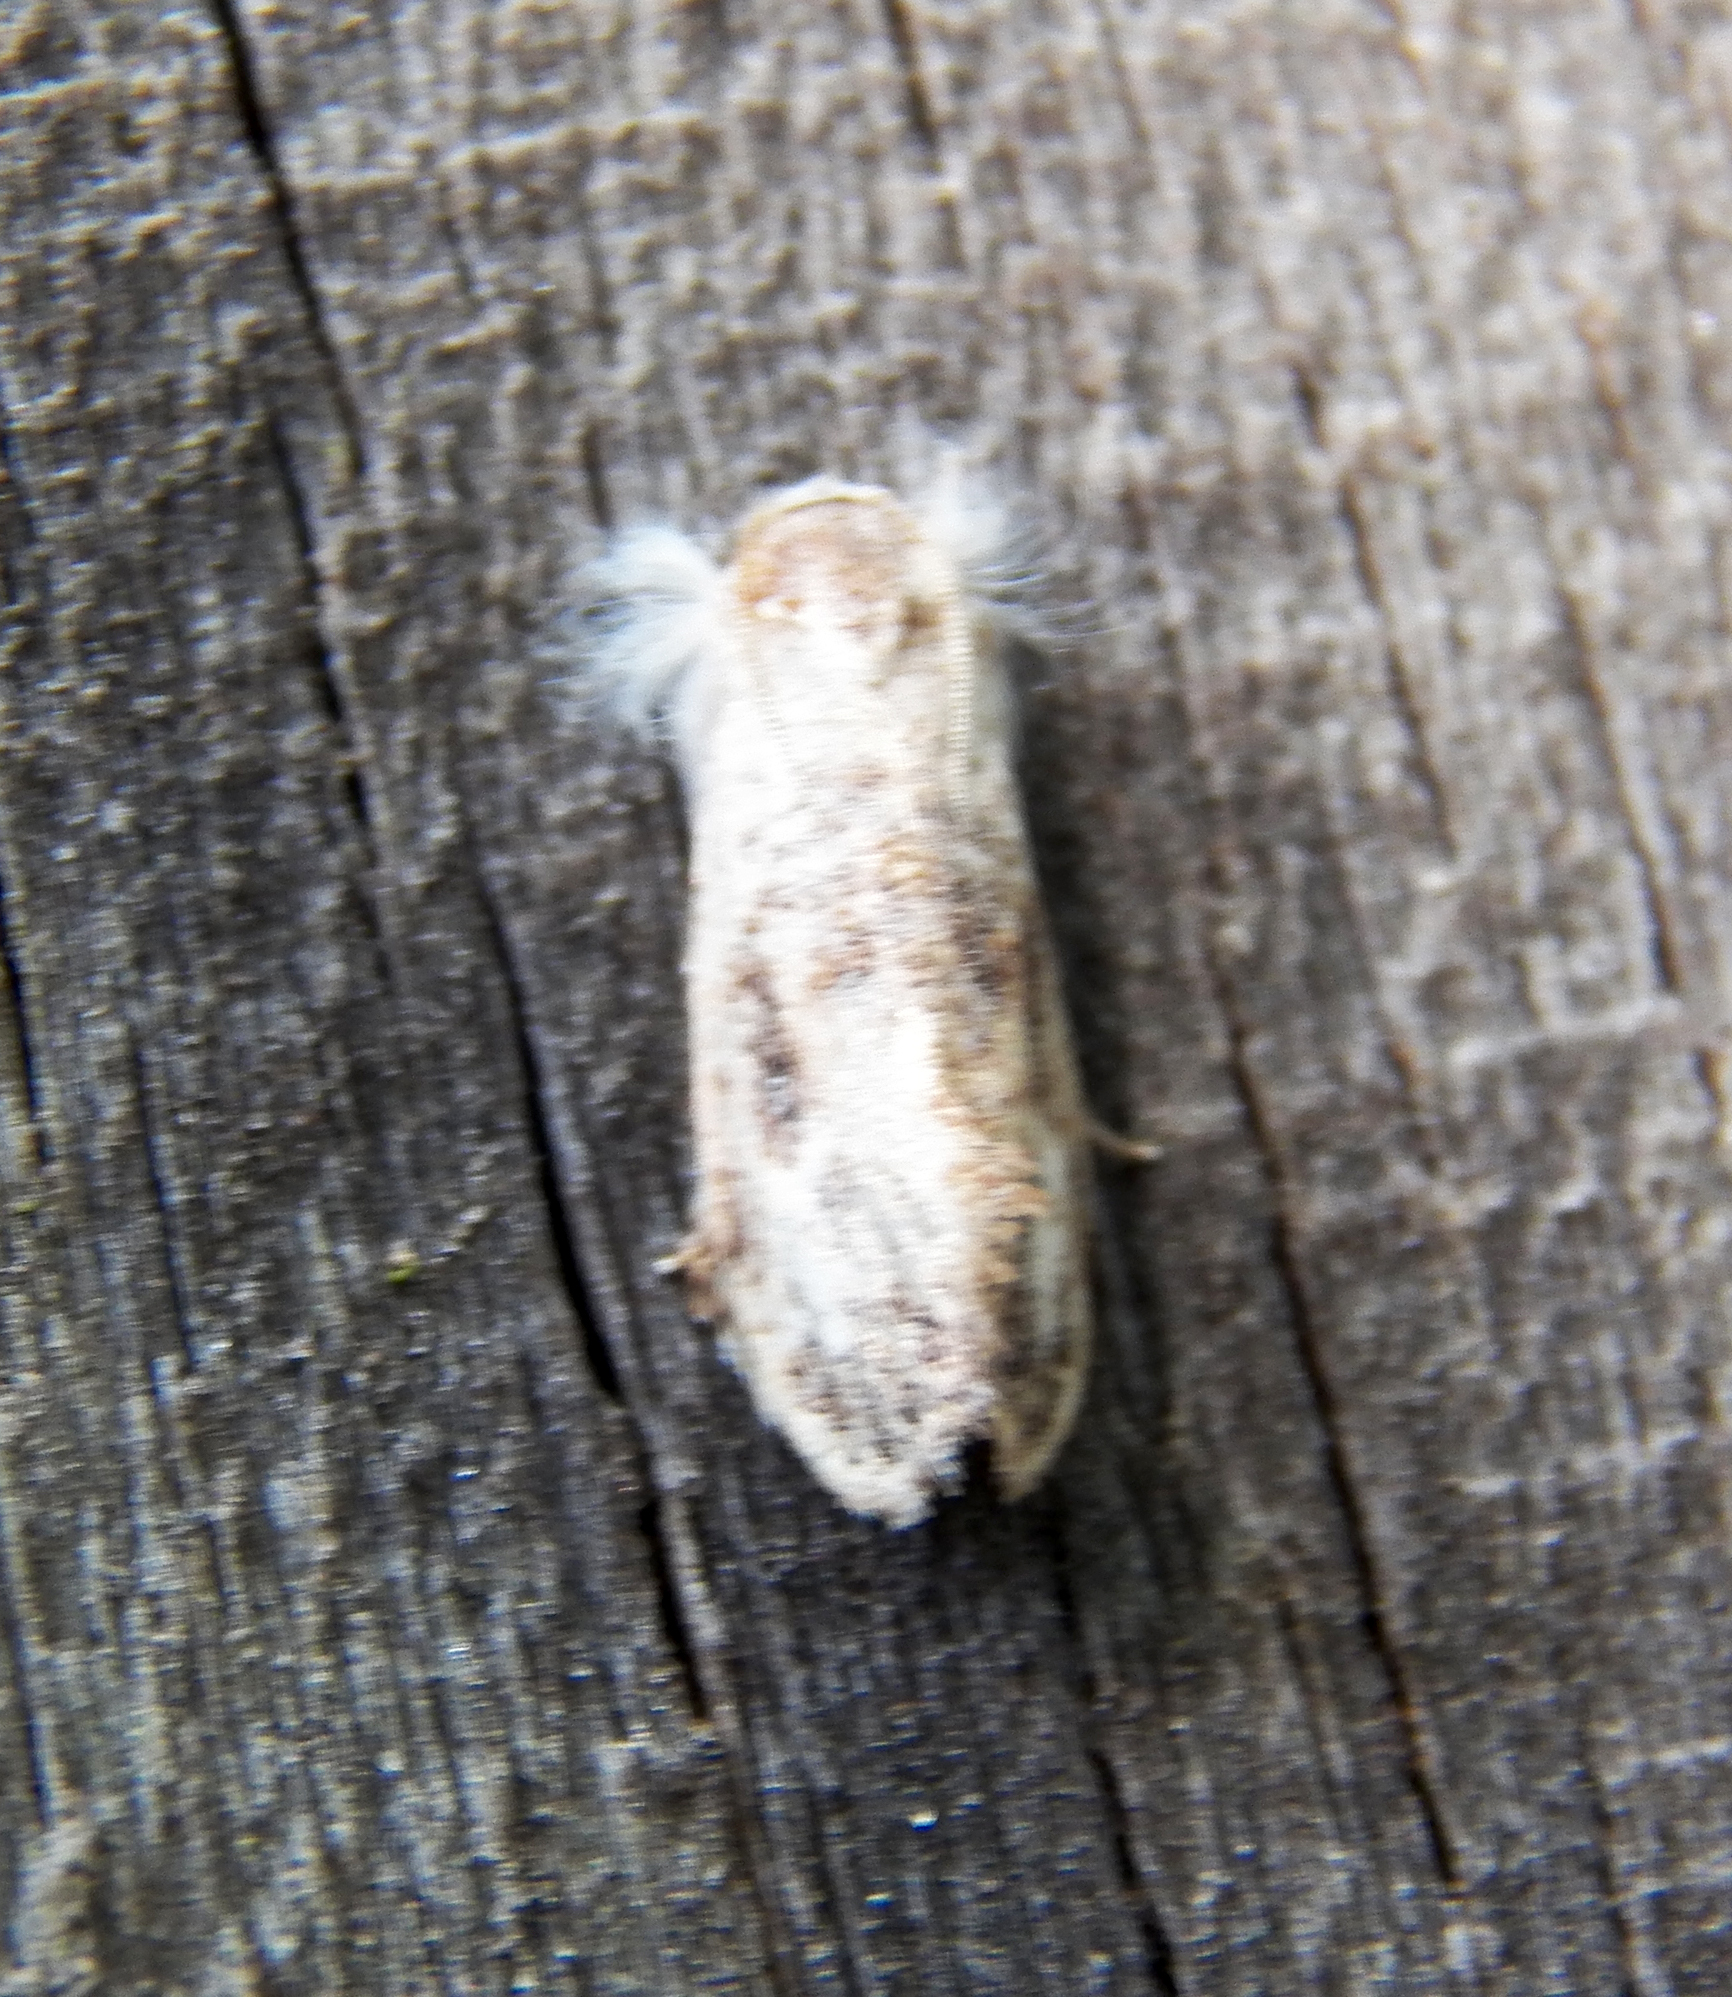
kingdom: Animalia
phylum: Arthropoda
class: Insecta
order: Lepidoptera
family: Tineidae
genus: Acrolophus
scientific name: Acrolophus mycetophagus
